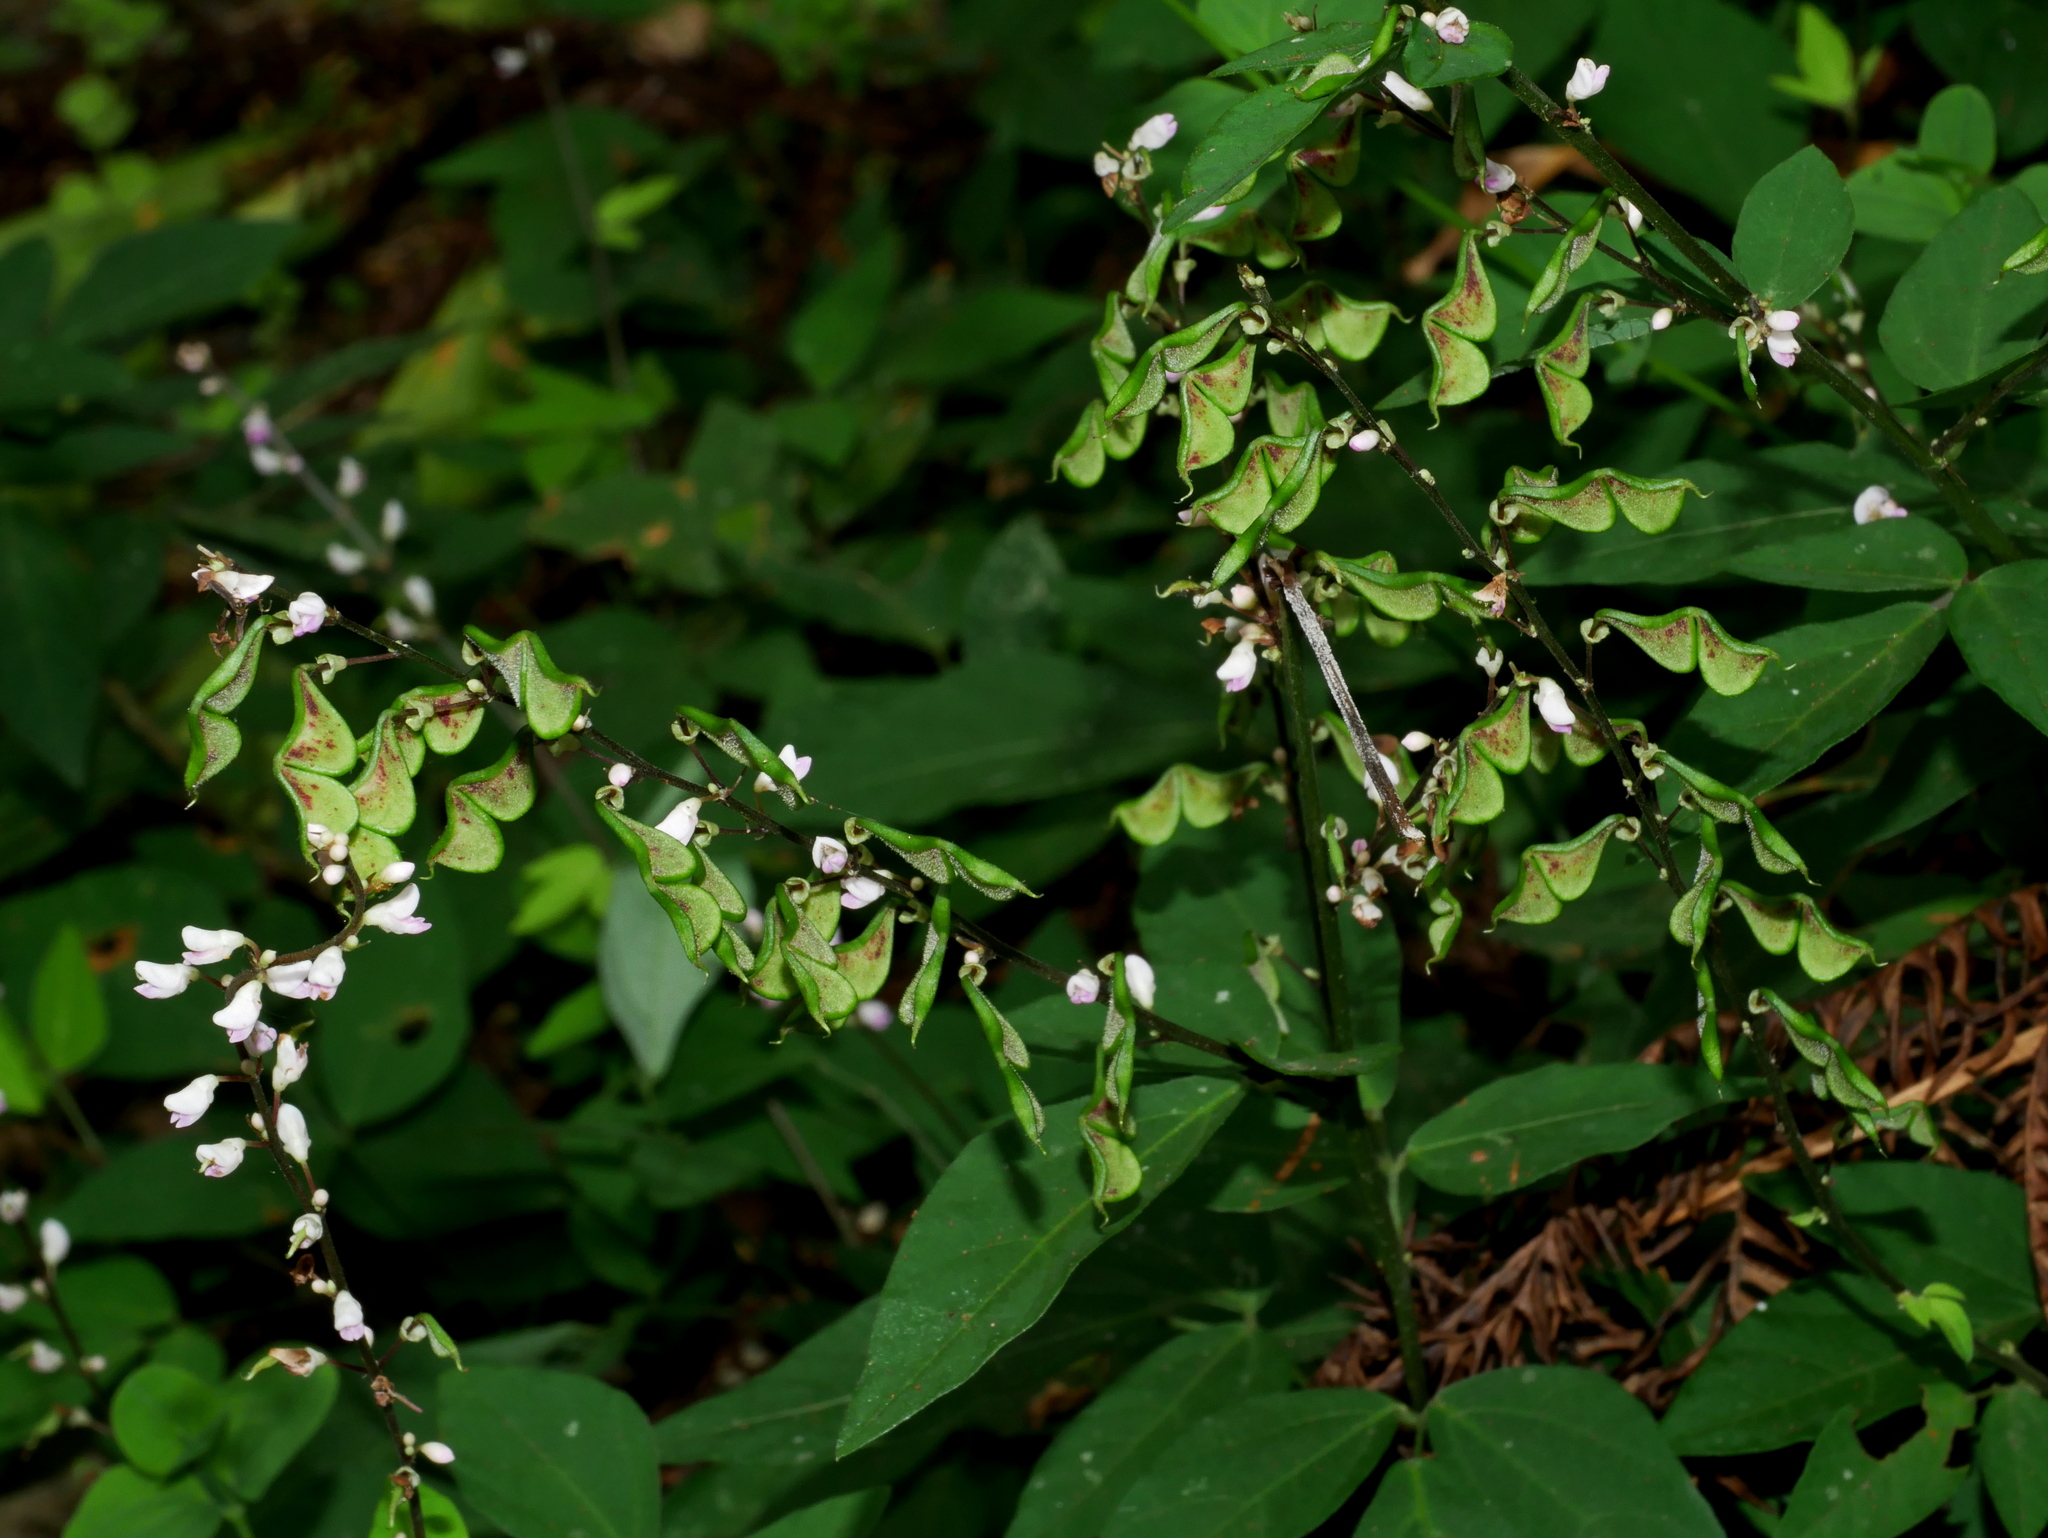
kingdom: Plantae
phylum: Tracheophyta
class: Magnoliopsida
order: Fabales
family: Fabaceae
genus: Hylodesmum
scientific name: Hylodesmum podocarpum
